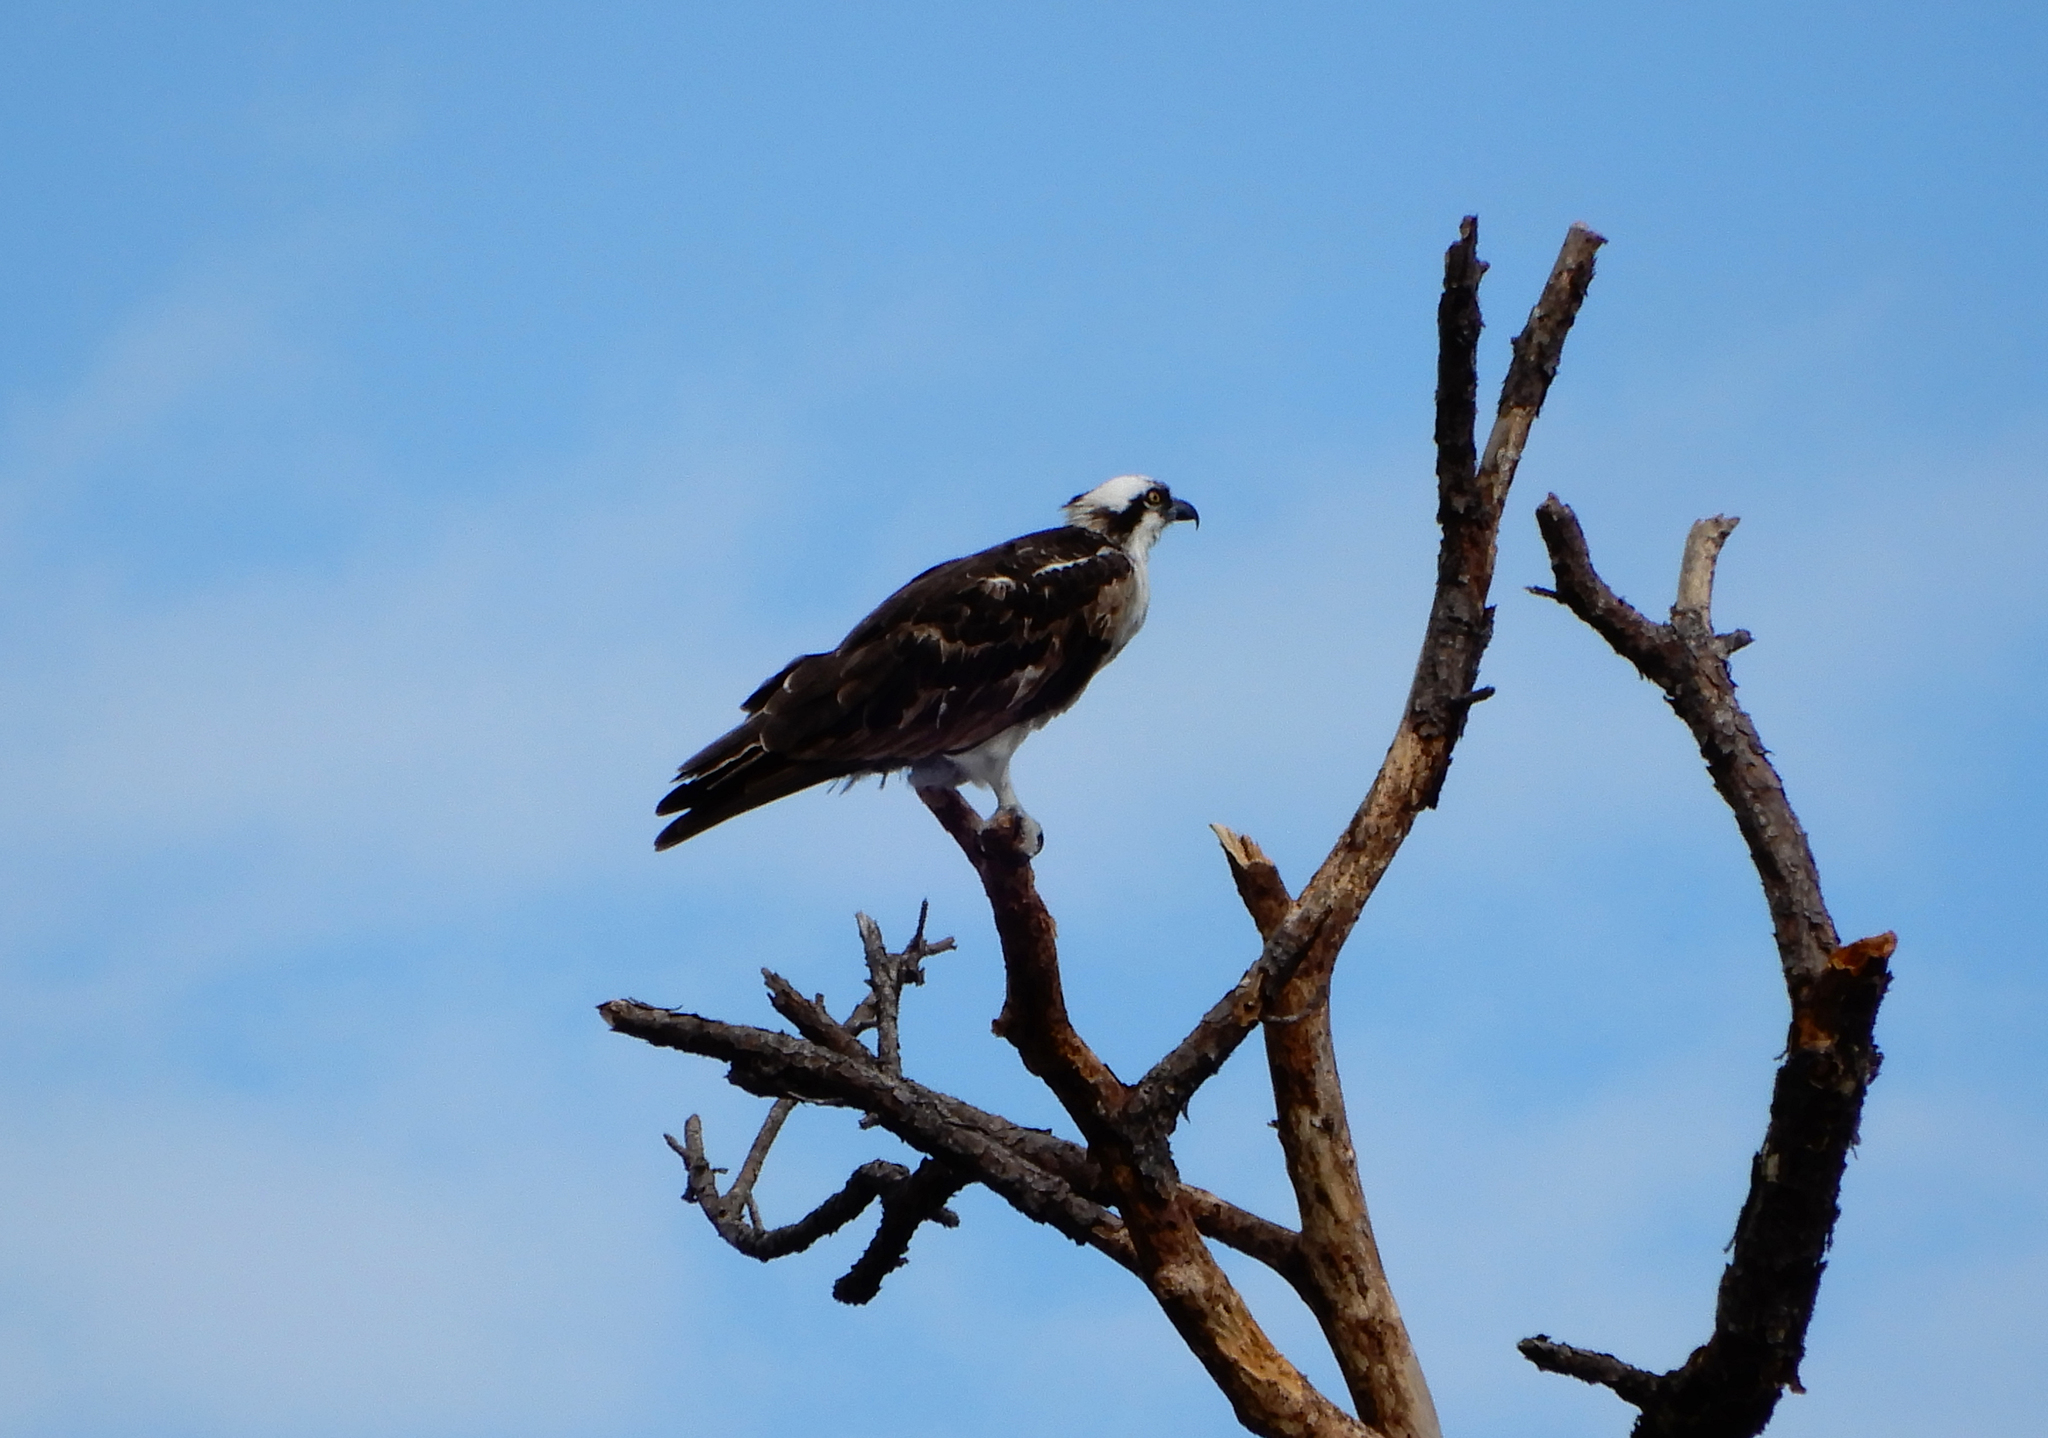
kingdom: Animalia
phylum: Chordata
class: Aves
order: Accipitriformes
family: Pandionidae
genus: Pandion
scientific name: Pandion haliaetus
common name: Osprey
